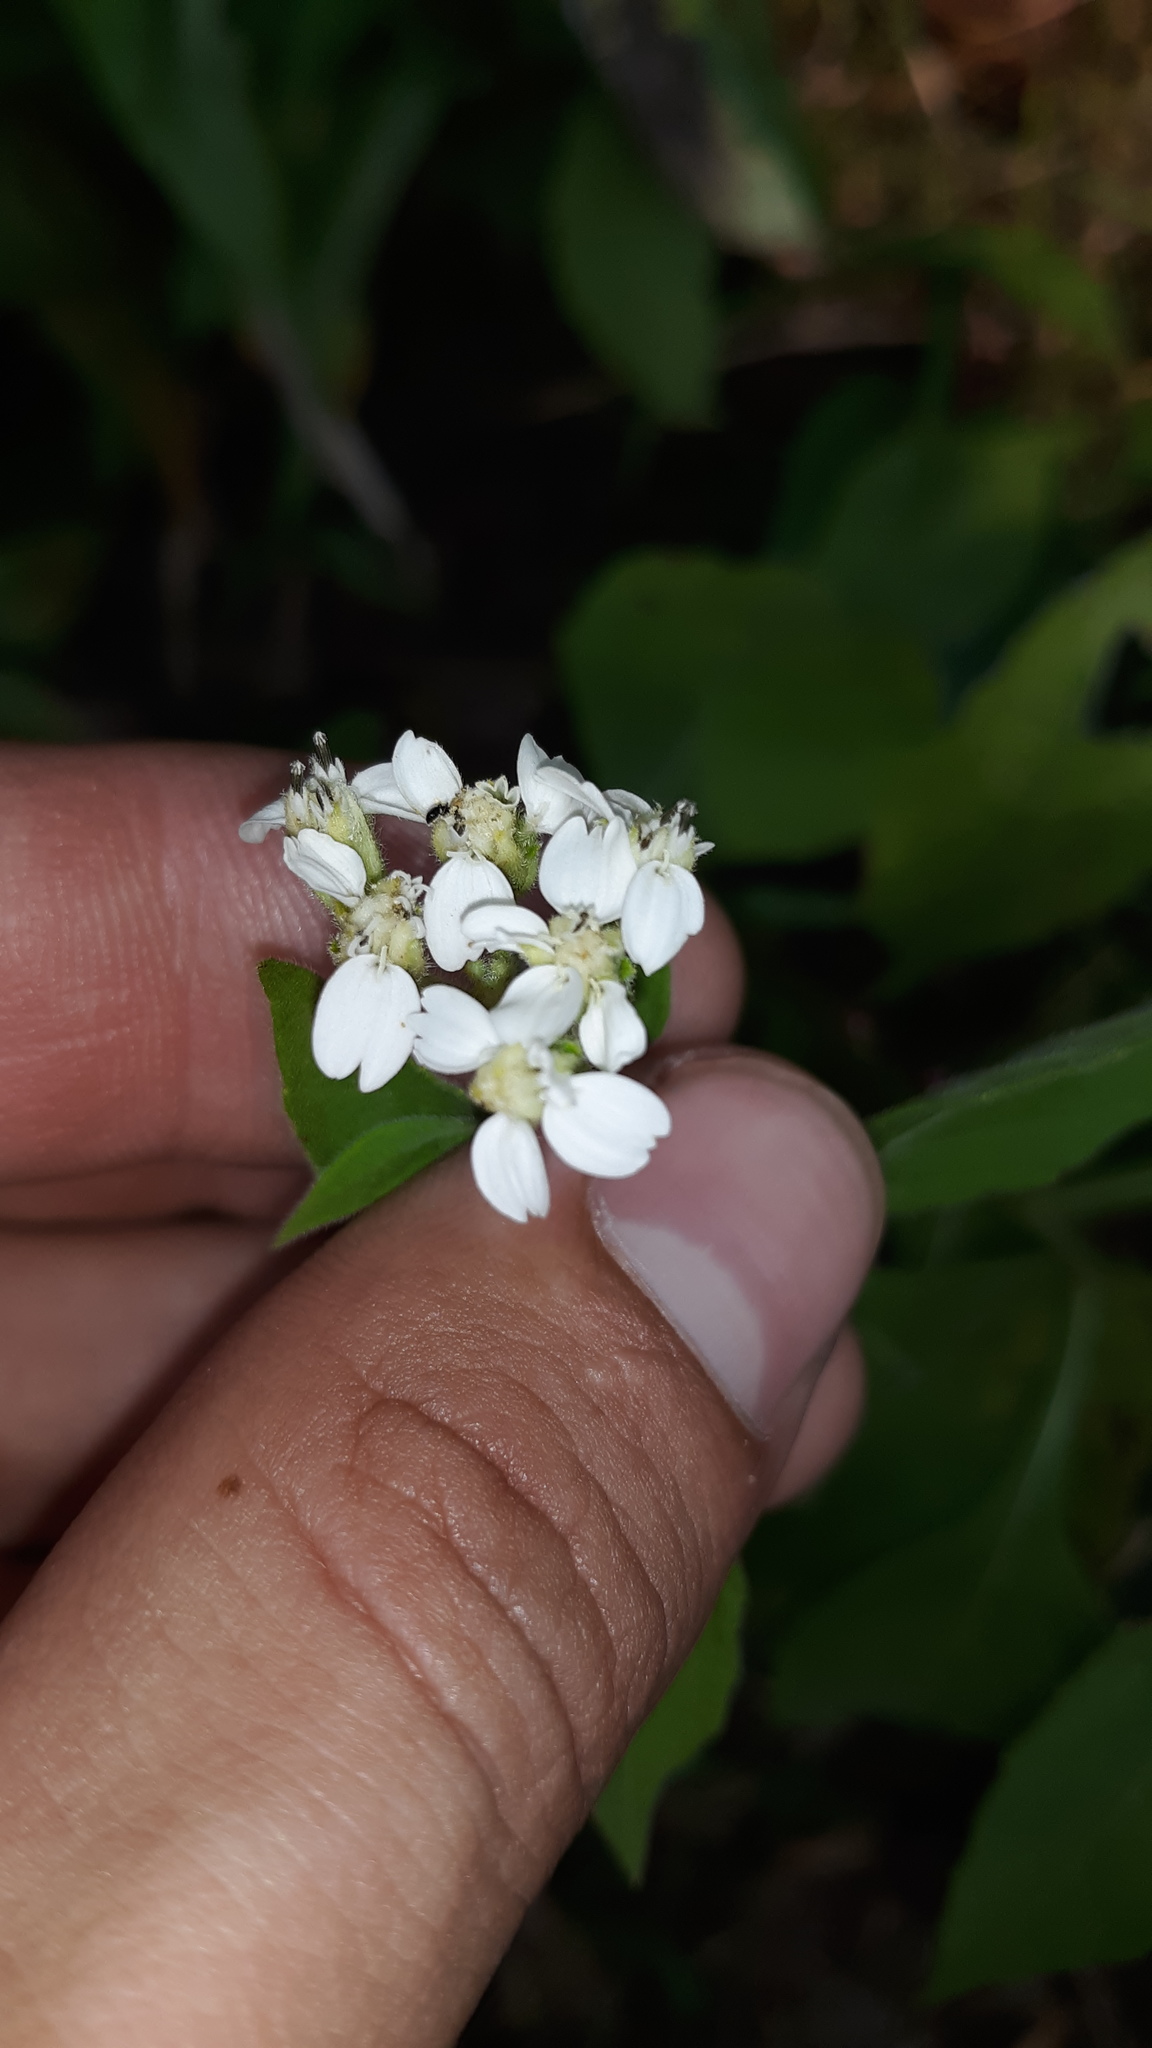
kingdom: Plantae
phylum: Tracheophyta
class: Magnoliopsida
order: Asterales
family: Asteraceae
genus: Verbesina
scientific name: Verbesina virginica
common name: Frostweed
